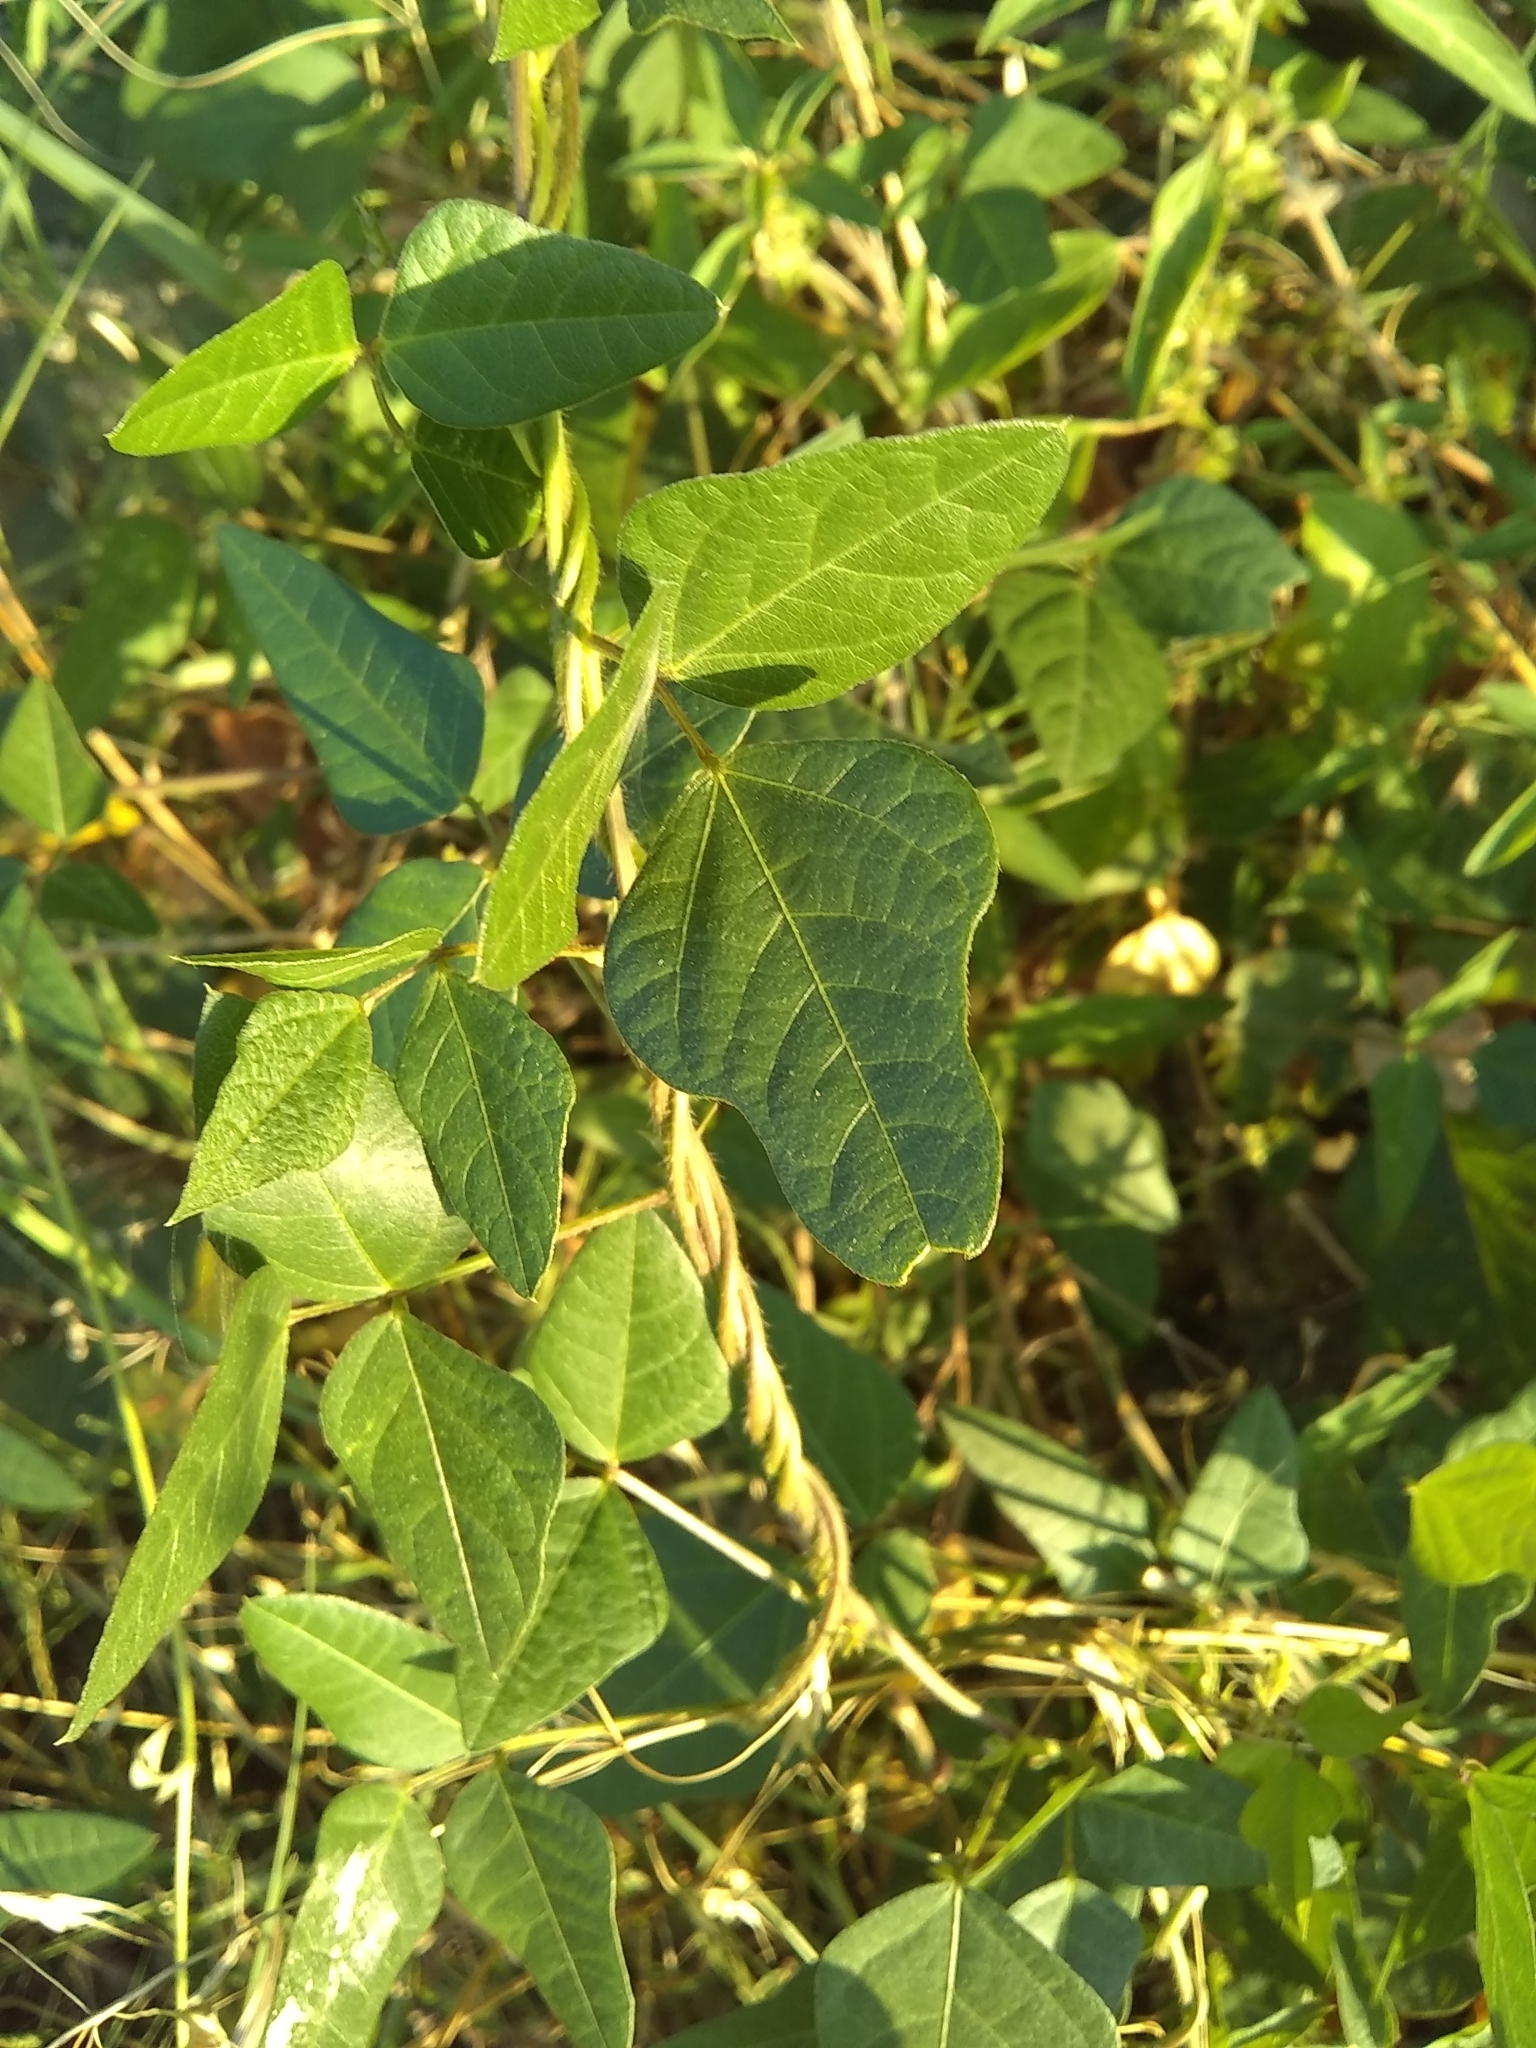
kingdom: Plantae
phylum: Tracheophyta
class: Magnoliopsida
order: Fabales
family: Fabaceae
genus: Strophostyles
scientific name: Strophostyles helvola
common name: Trailing wild bean
